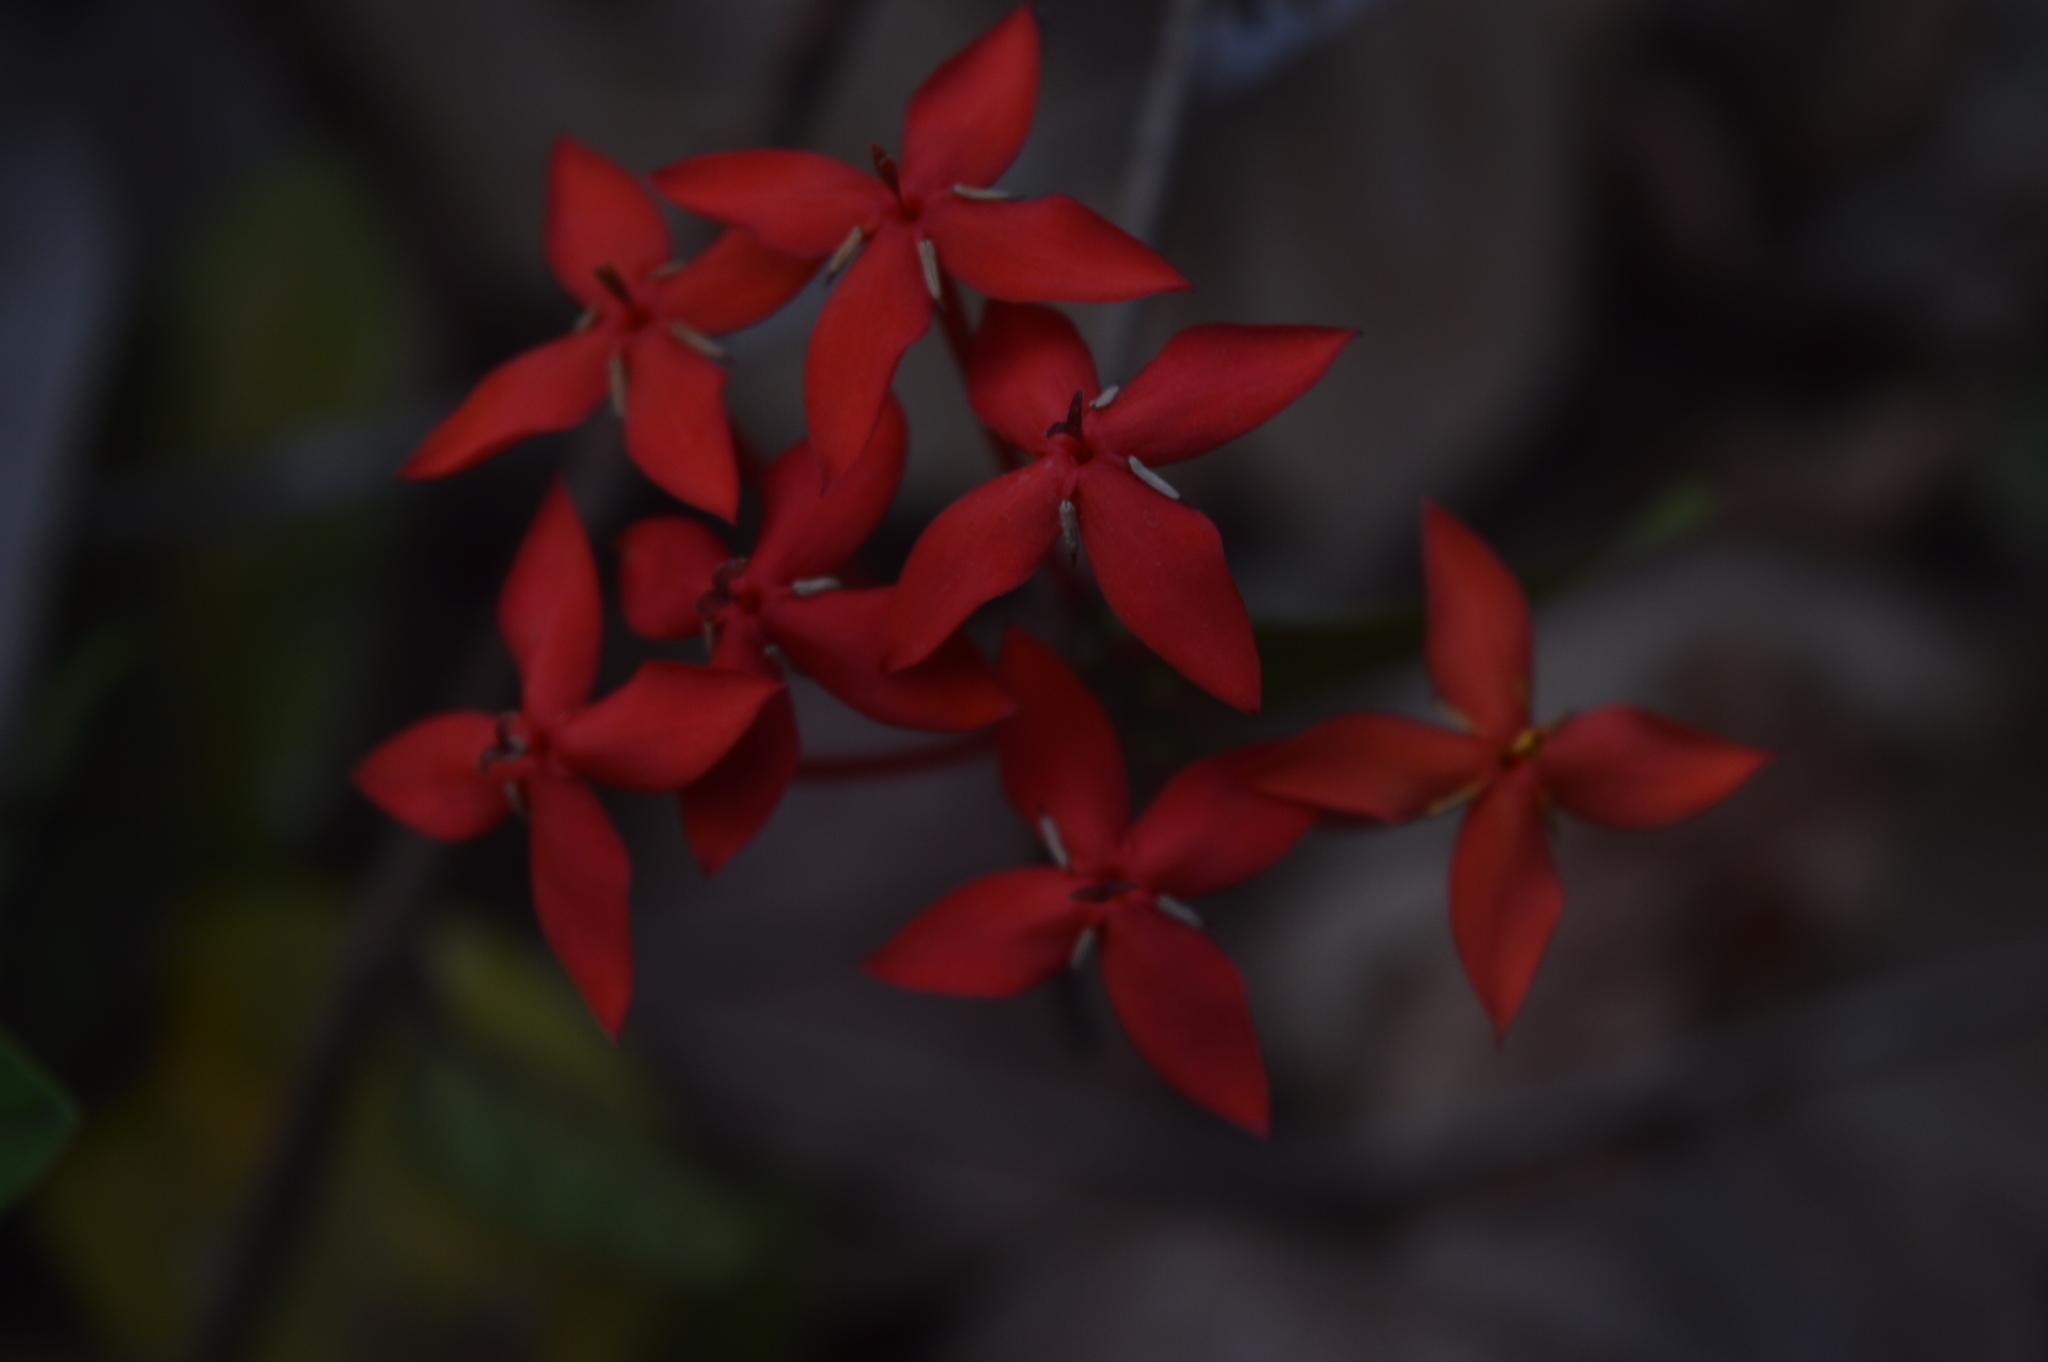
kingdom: Plantae
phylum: Tracheophyta
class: Magnoliopsida
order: Gentianales
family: Rubiaceae
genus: Ixora
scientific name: Ixora coccinea
